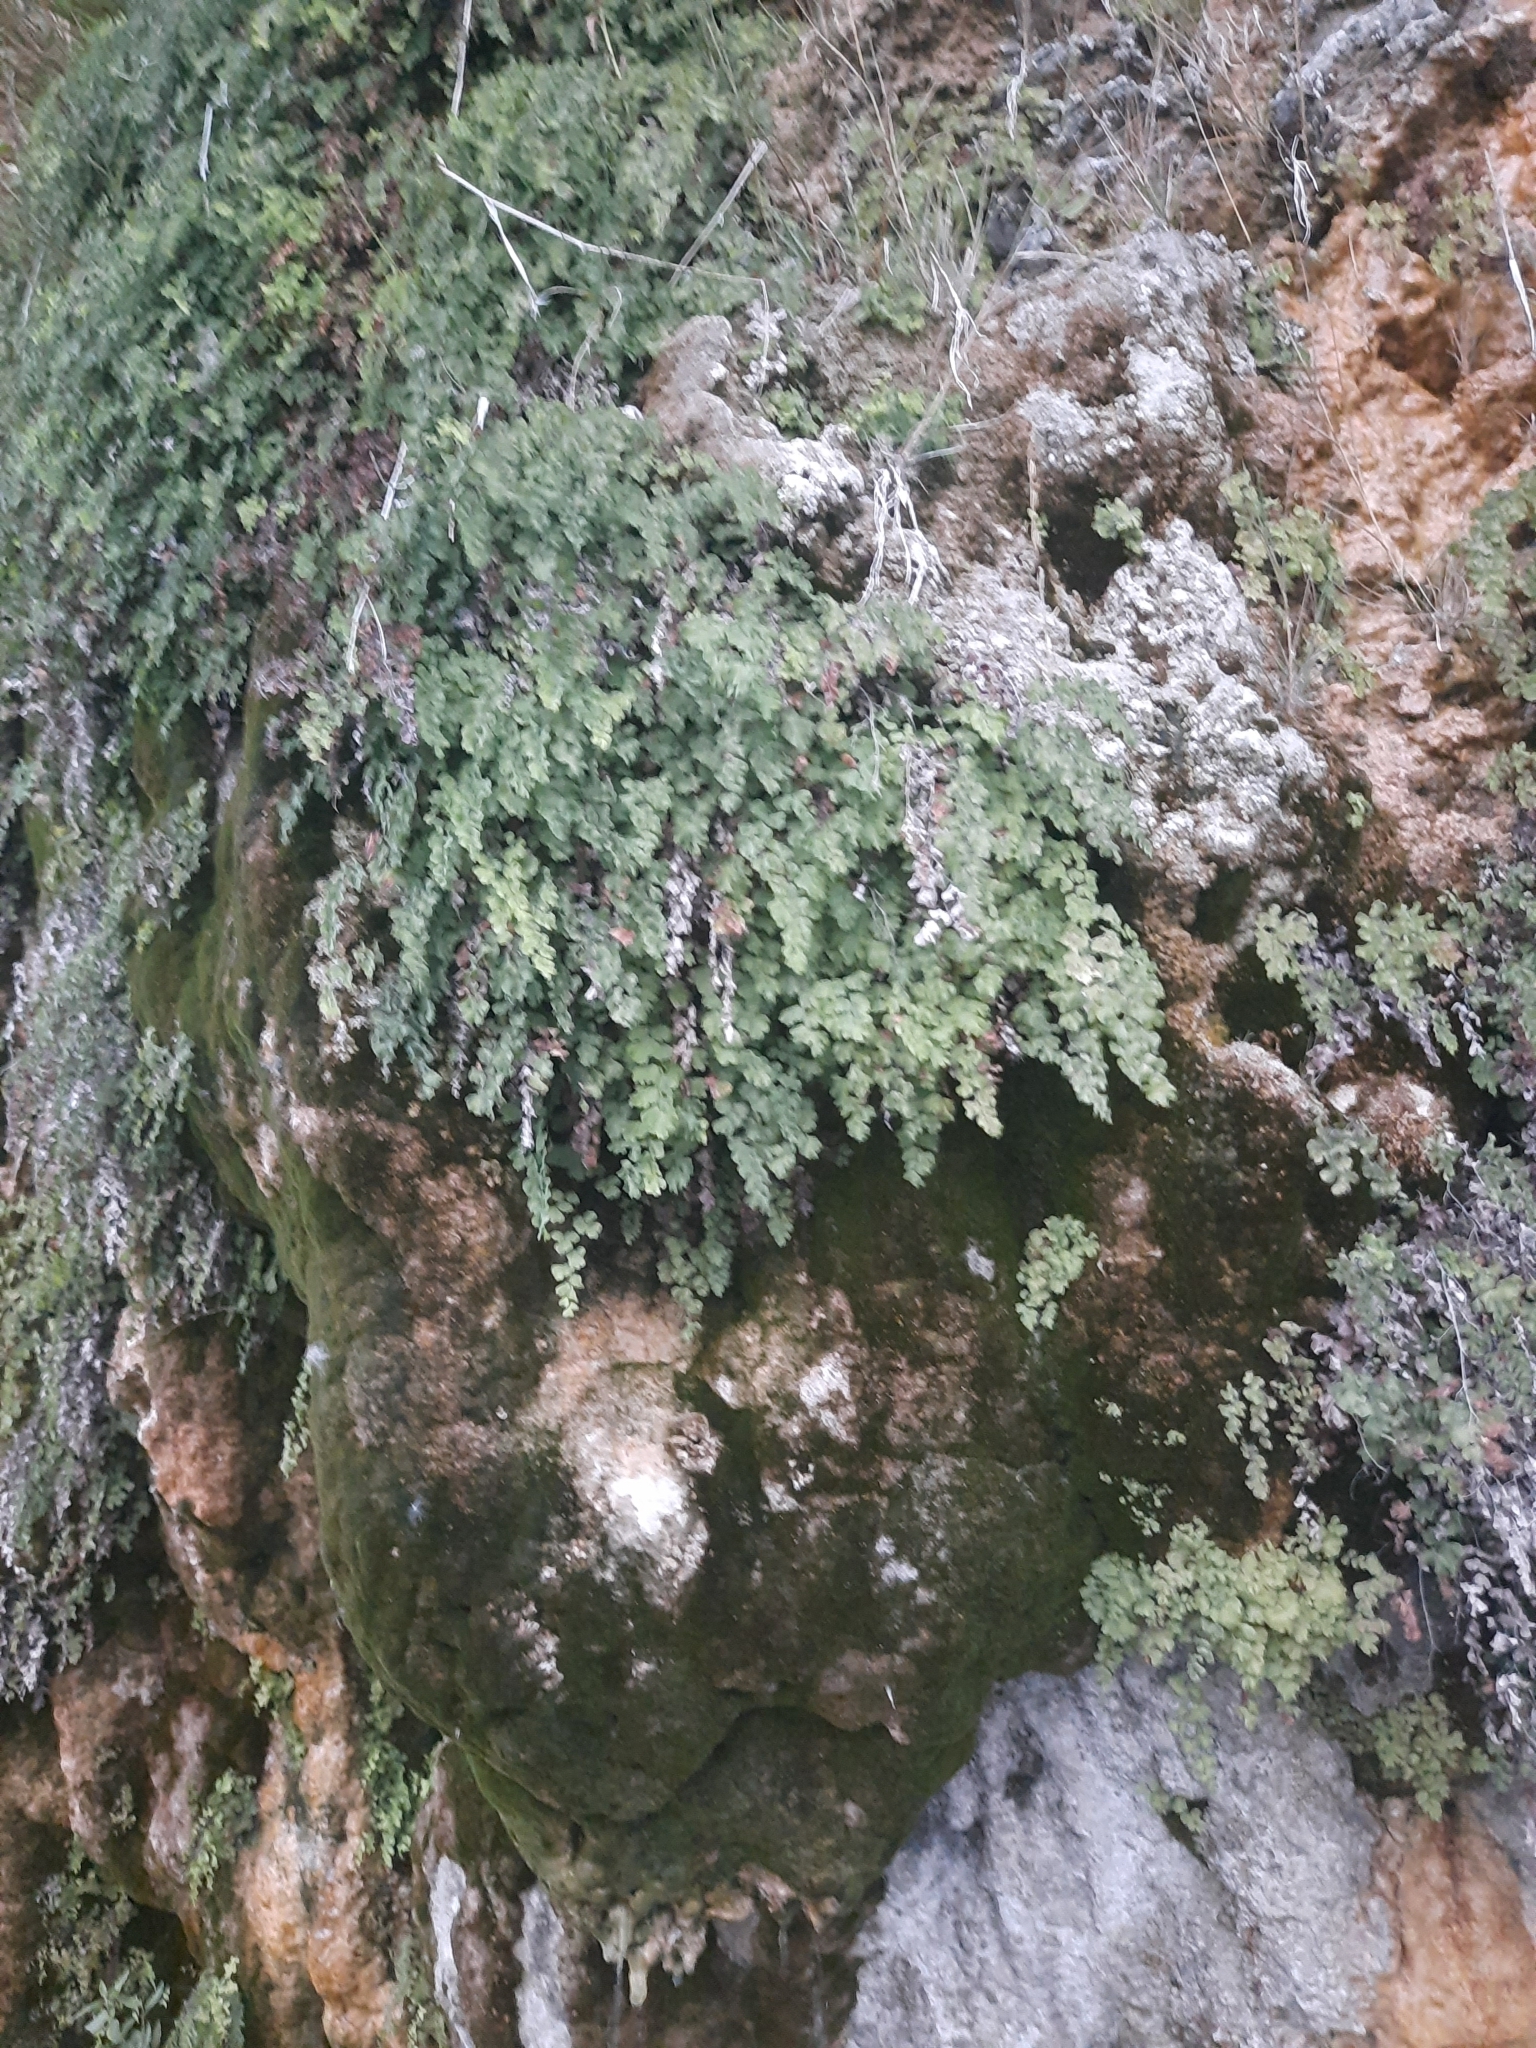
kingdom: Plantae
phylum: Tracheophyta
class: Polypodiopsida
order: Polypodiales
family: Pteridaceae
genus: Adiantum
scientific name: Adiantum capillus-veneris
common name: Maidenhair fern
